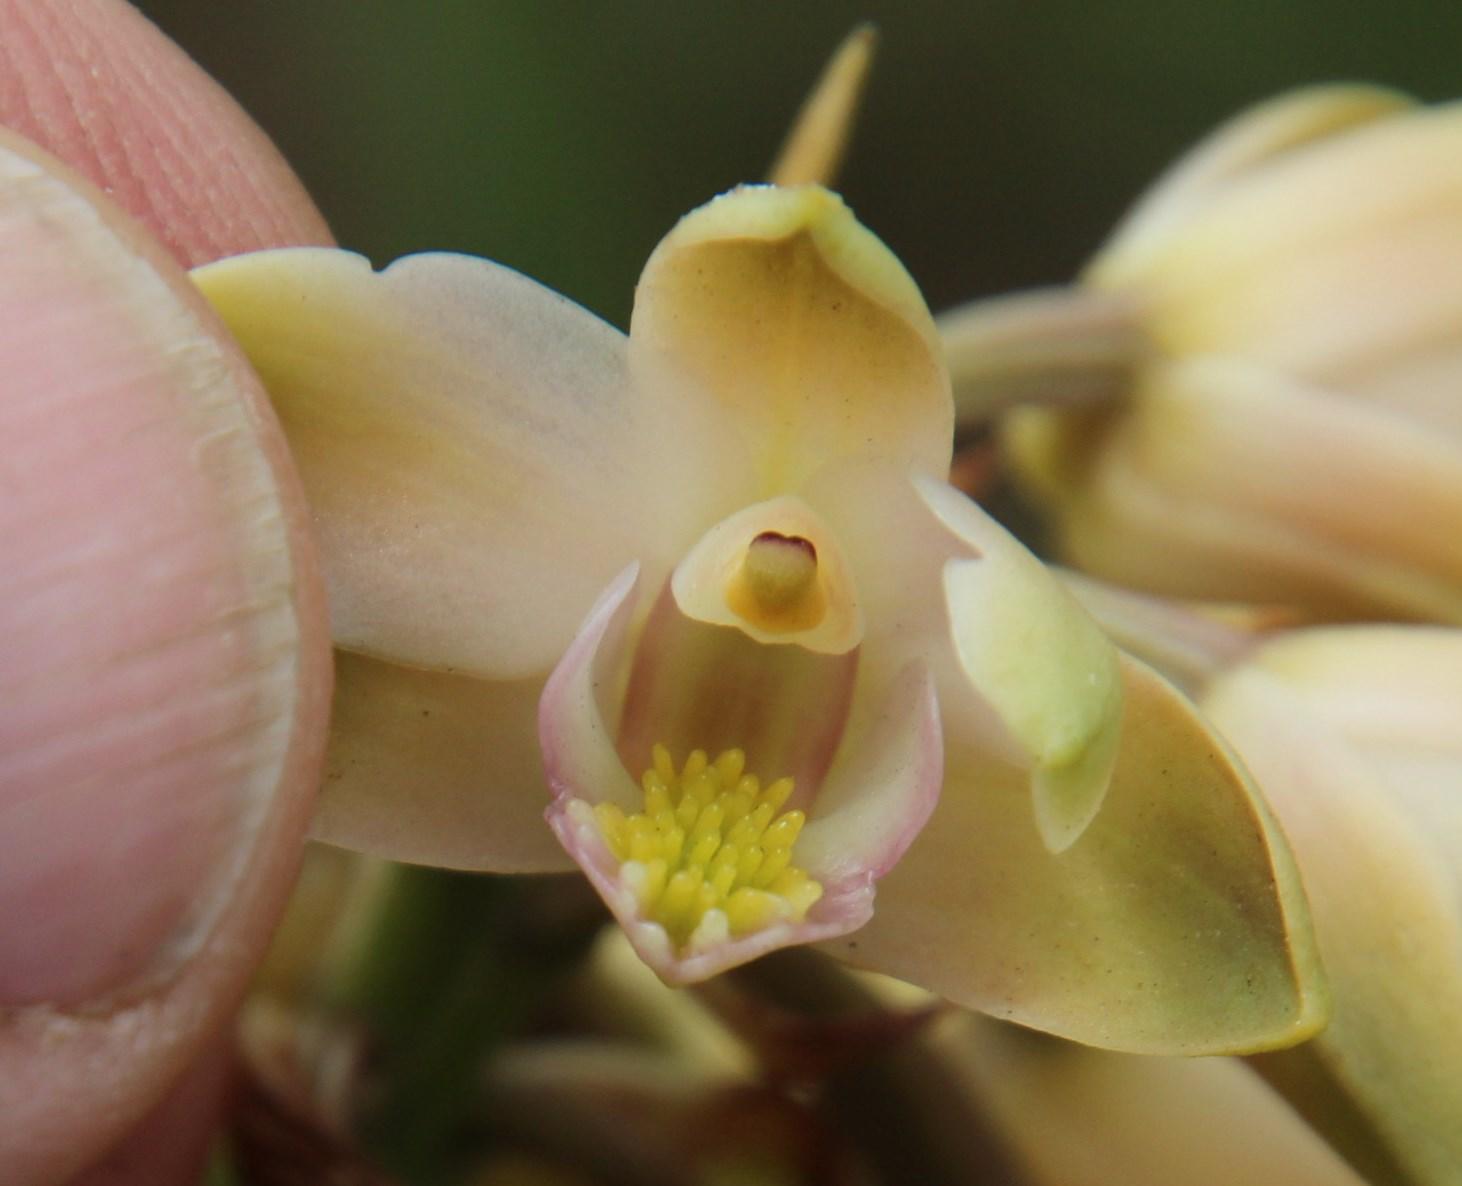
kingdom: Plantae
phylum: Tracheophyta
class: Liliopsida
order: Asparagales
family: Orchidaceae
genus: Eulophia
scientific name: Eulophia huttonii
